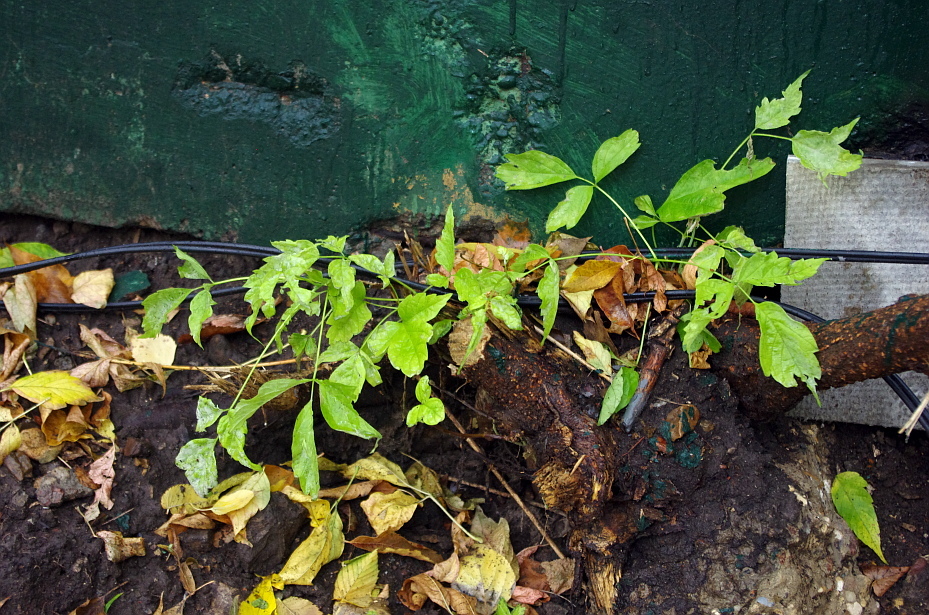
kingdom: Plantae
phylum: Tracheophyta
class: Magnoliopsida
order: Sapindales
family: Sapindaceae
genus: Acer
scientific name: Acer negundo
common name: Ashleaf maple
